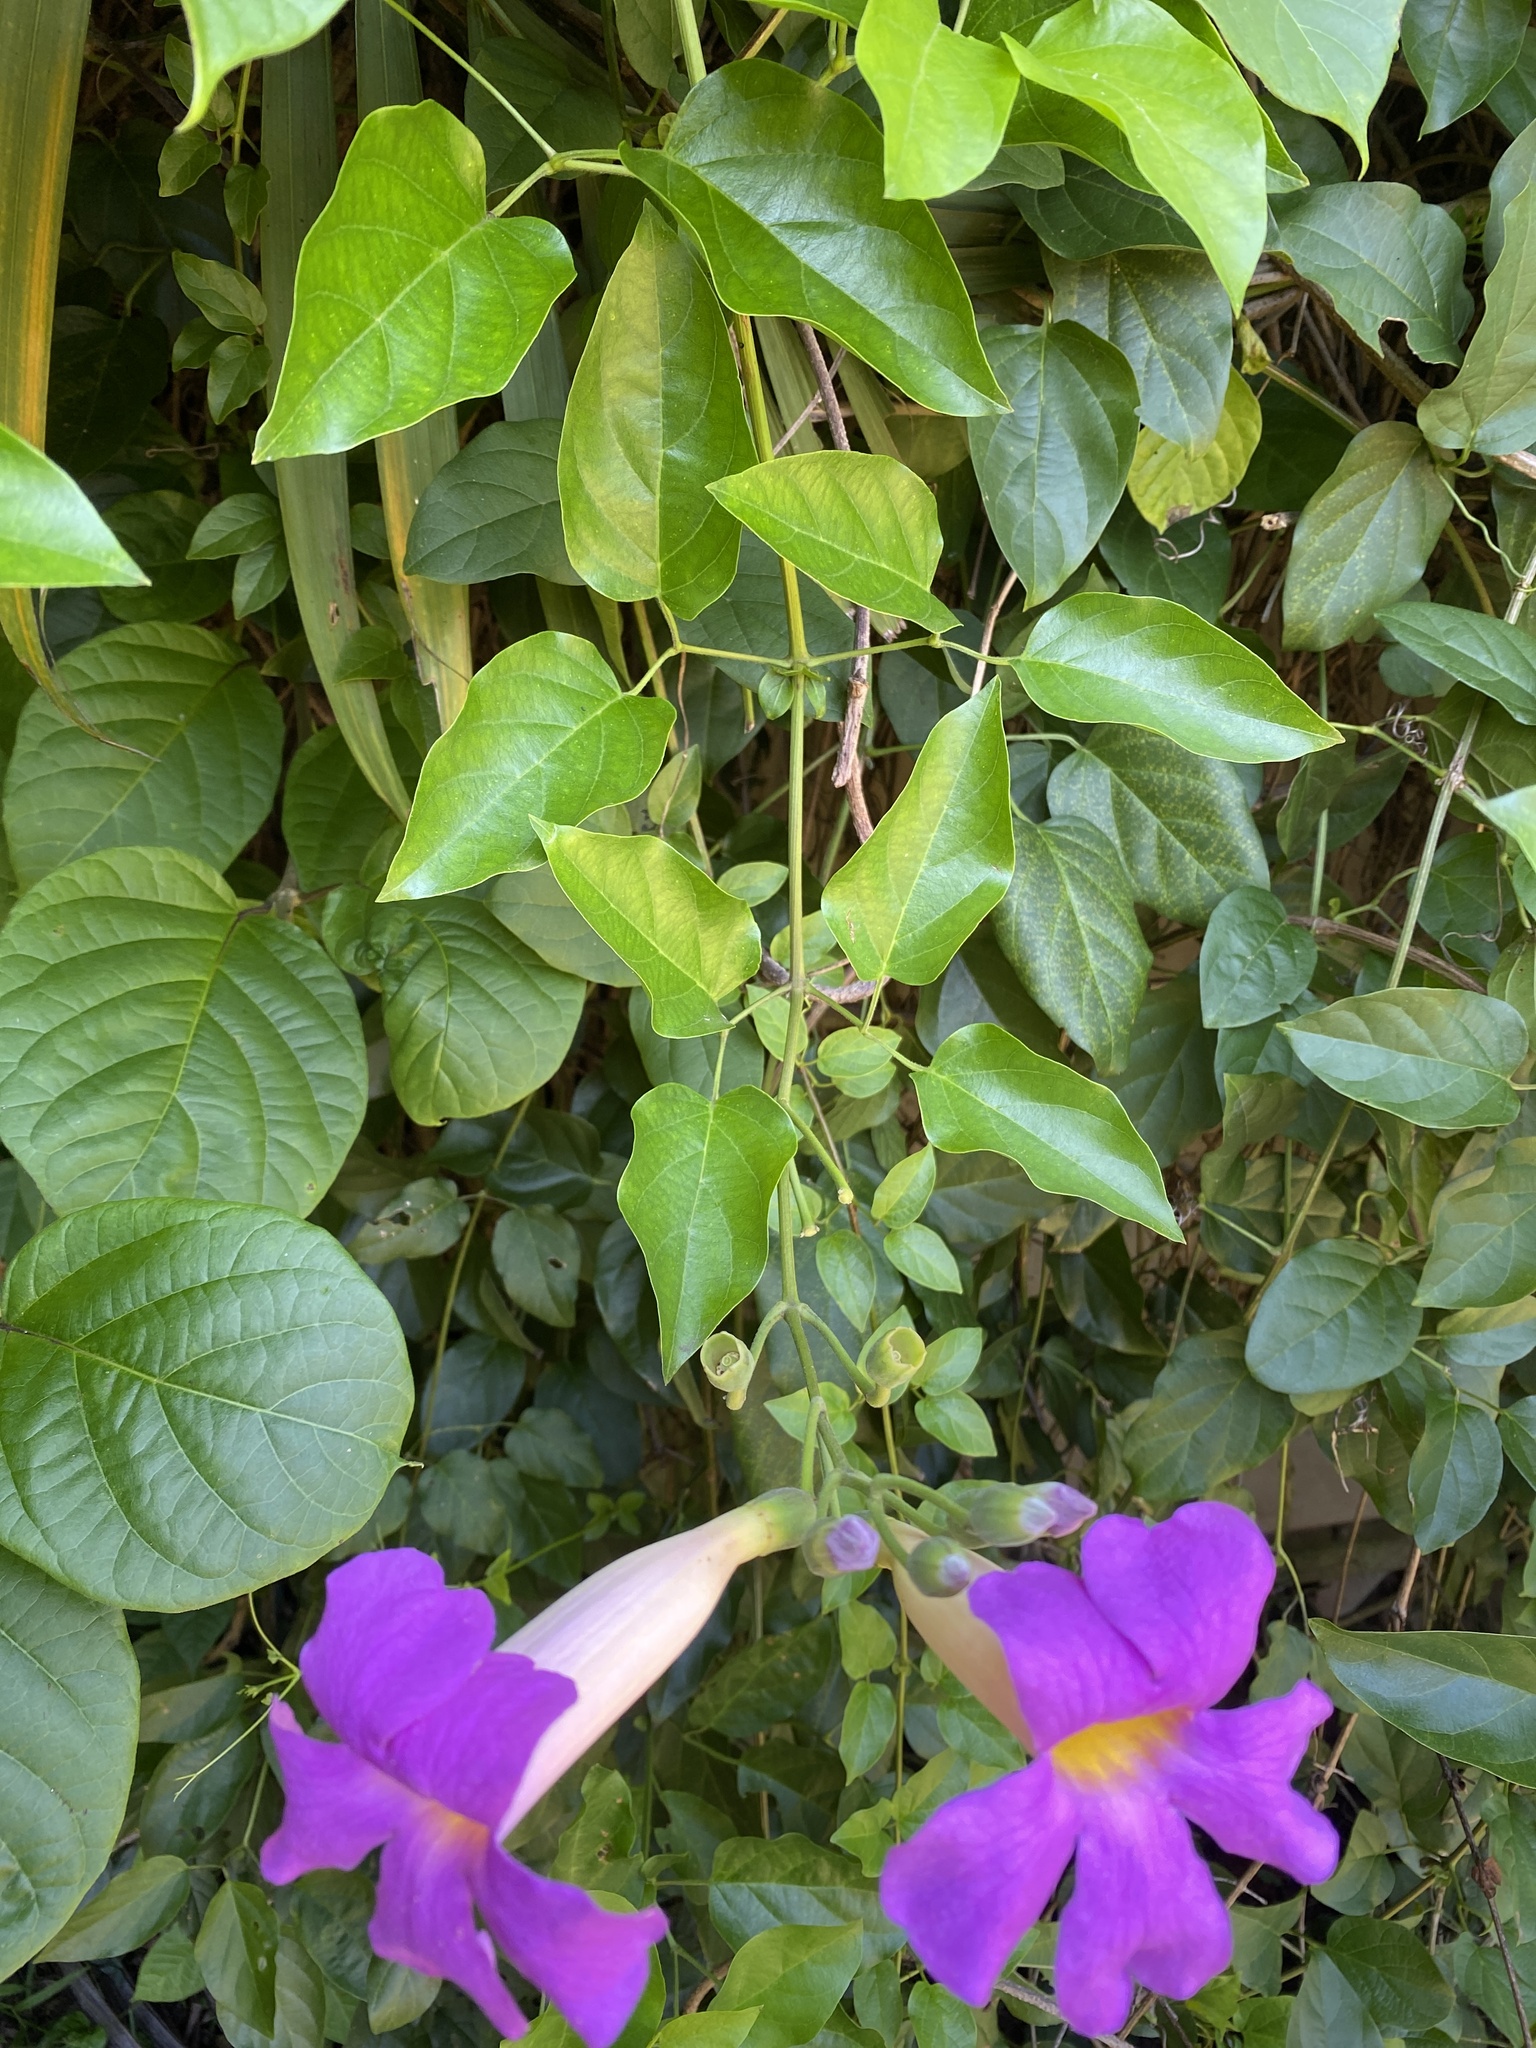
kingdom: Plantae
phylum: Tracheophyta
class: Magnoliopsida
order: Lamiales
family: Bignoniaceae
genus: Amphilophium
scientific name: Amphilophium buccinatorium
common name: Mexican blood-flower
